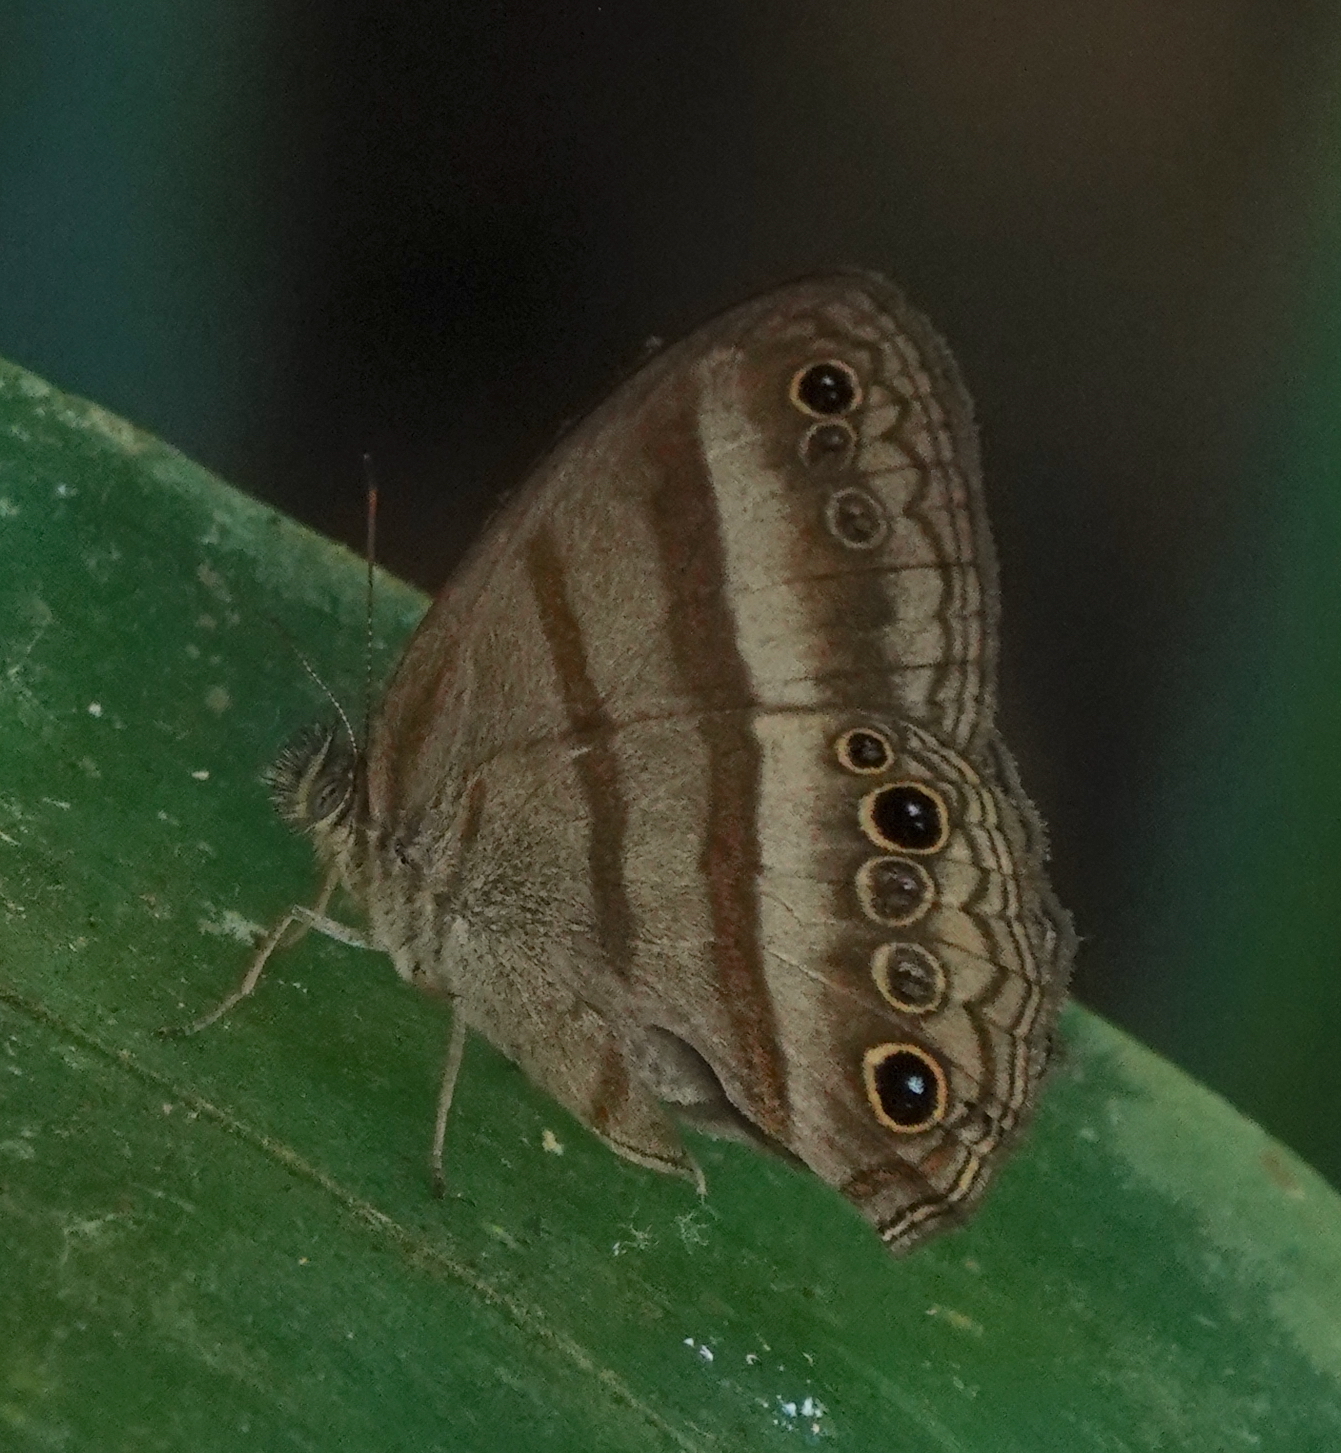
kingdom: Animalia
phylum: Arthropoda
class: Insecta
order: Lepidoptera
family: Nymphalidae
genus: Modica
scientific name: Modica
